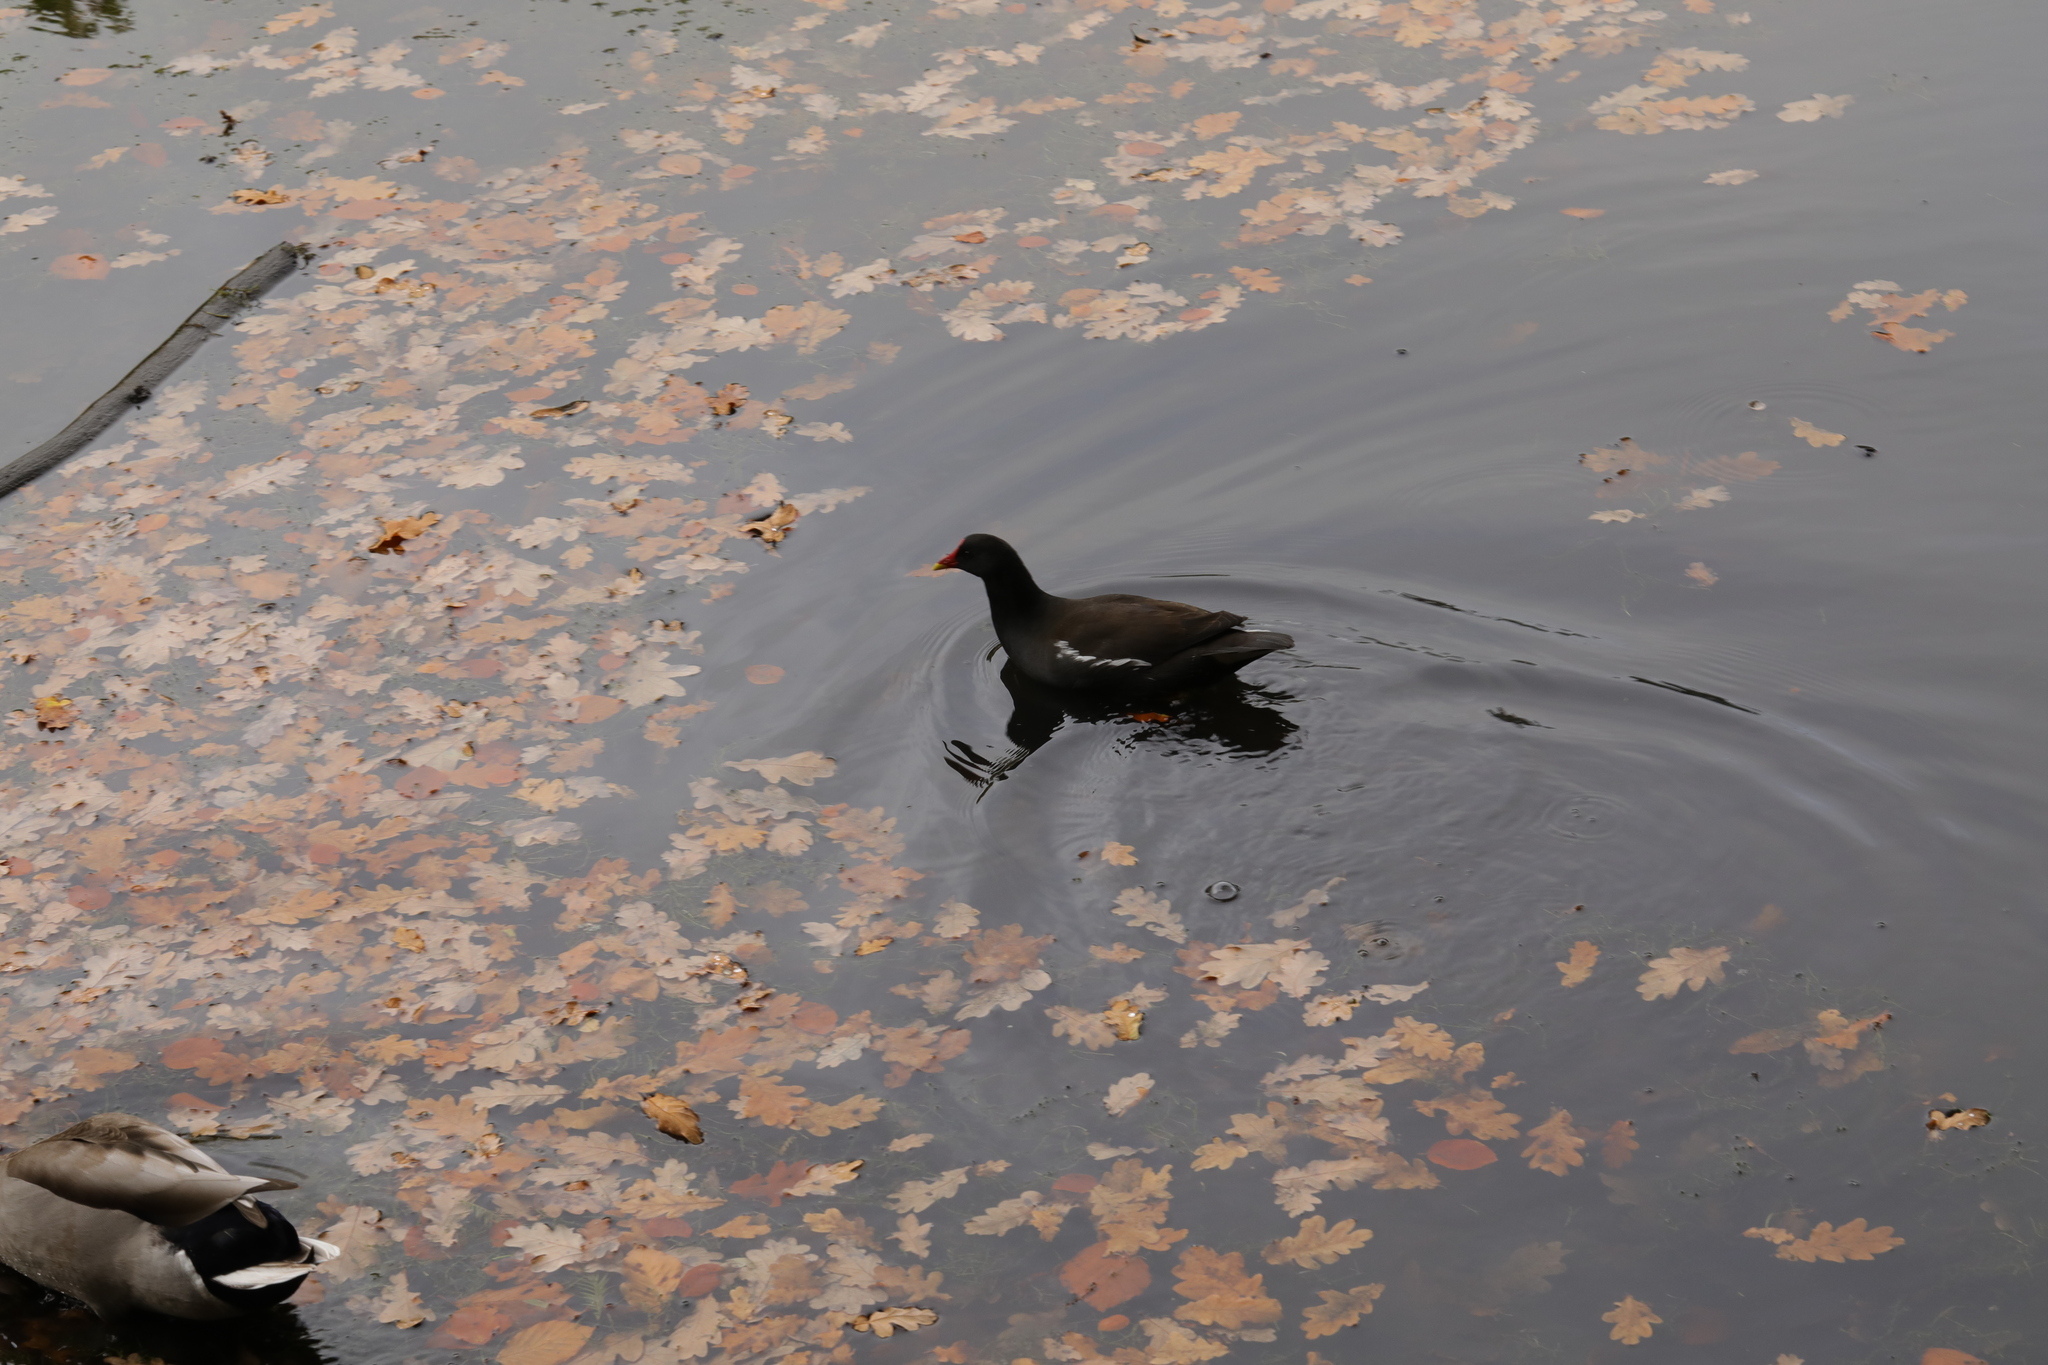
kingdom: Animalia
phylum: Chordata
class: Aves
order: Gruiformes
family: Rallidae
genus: Gallinula
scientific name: Gallinula chloropus
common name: Common moorhen
